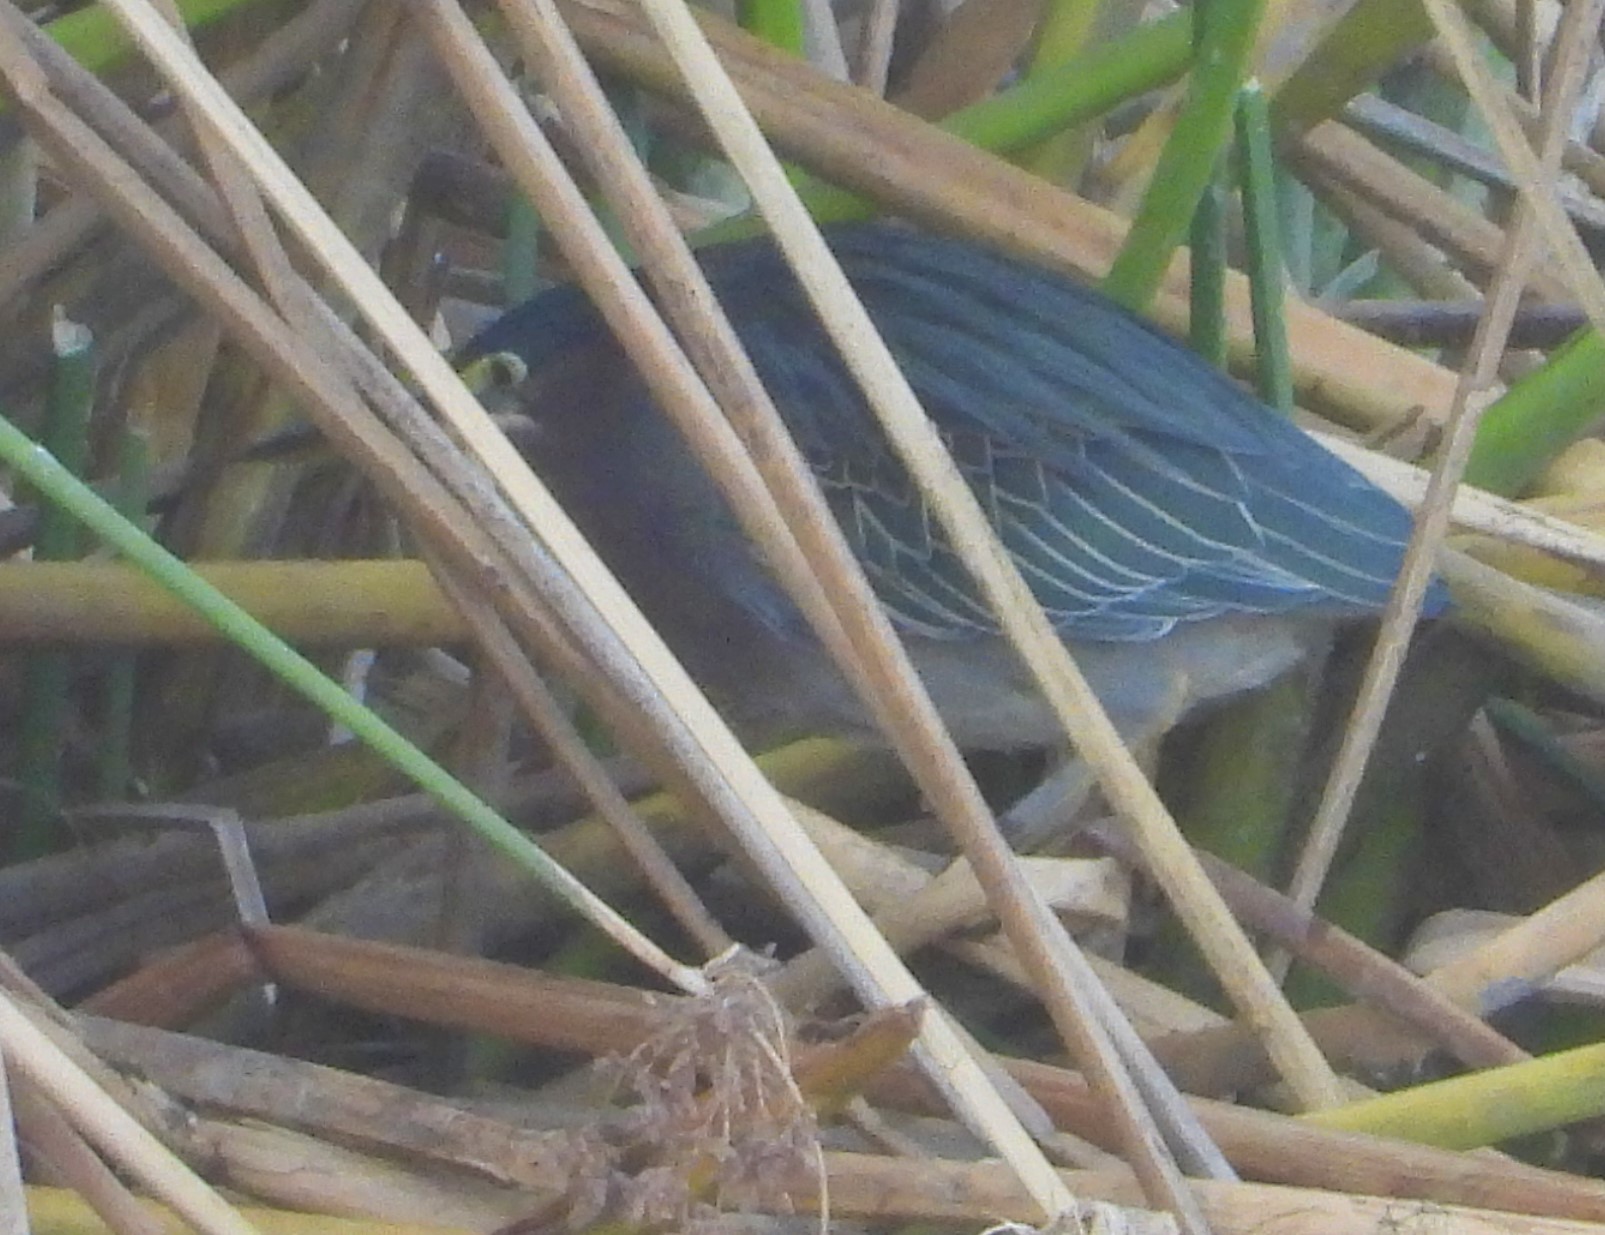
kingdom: Animalia
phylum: Chordata
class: Aves
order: Pelecaniformes
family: Ardeidae
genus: Butorides
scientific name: Butorides virescens
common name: Green heron
